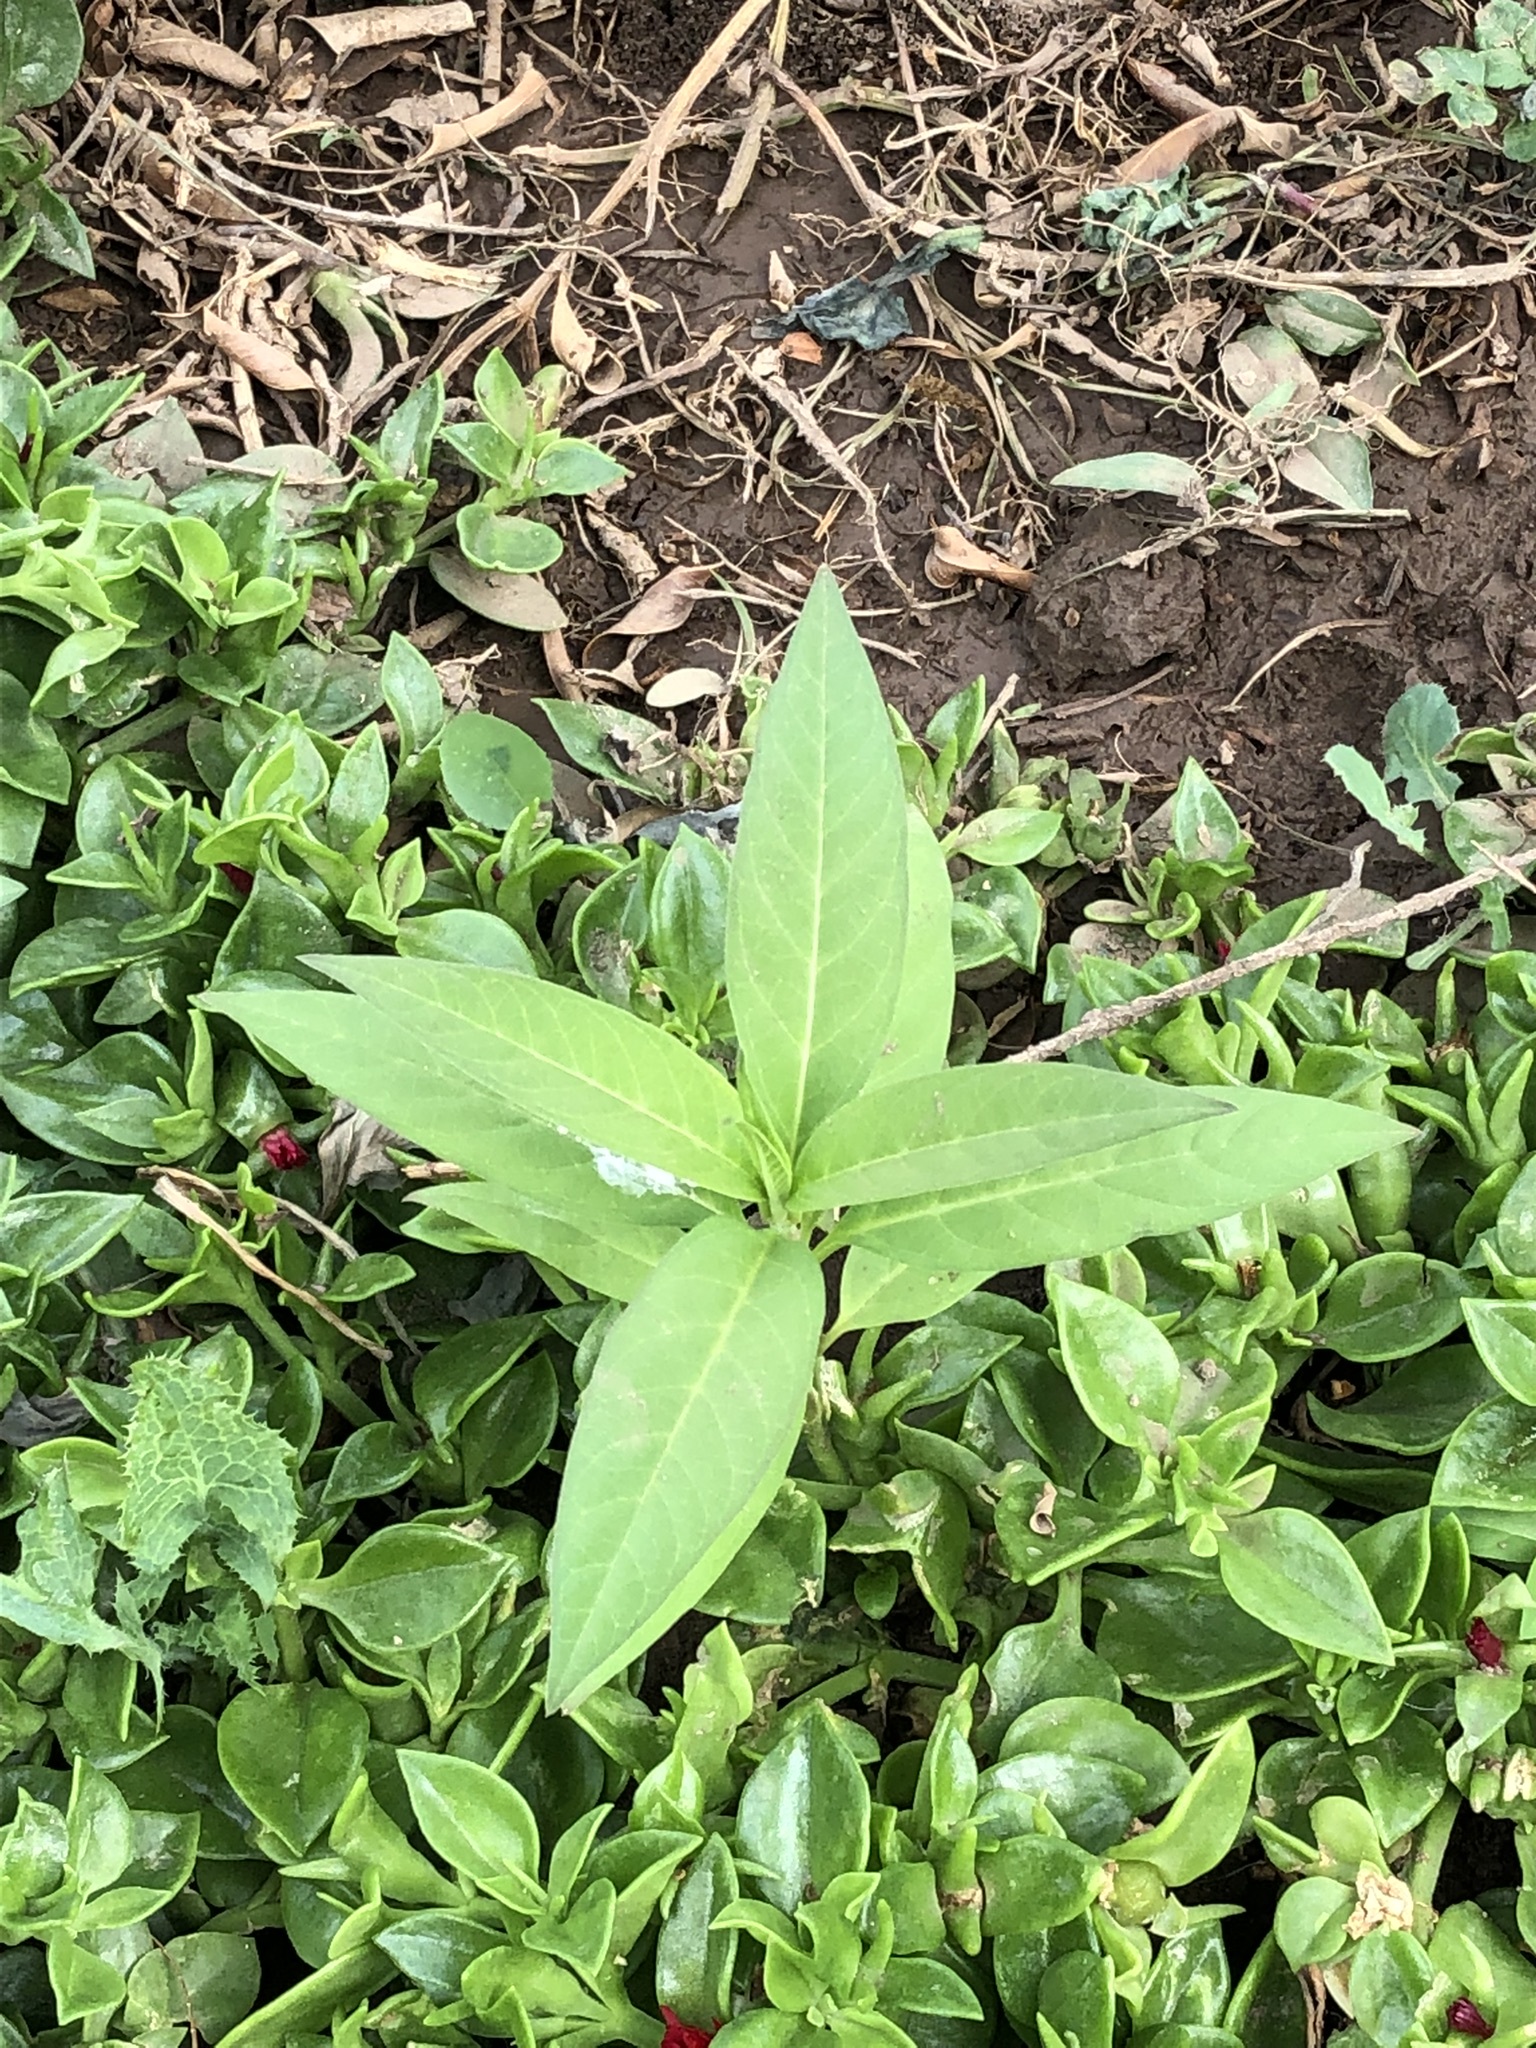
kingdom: Plantae
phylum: Tracheophyta
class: Magnoliopsida
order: Gentianales
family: Apocynaceae
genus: Asclepias
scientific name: Asclepias curassavica
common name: Bloodflower
